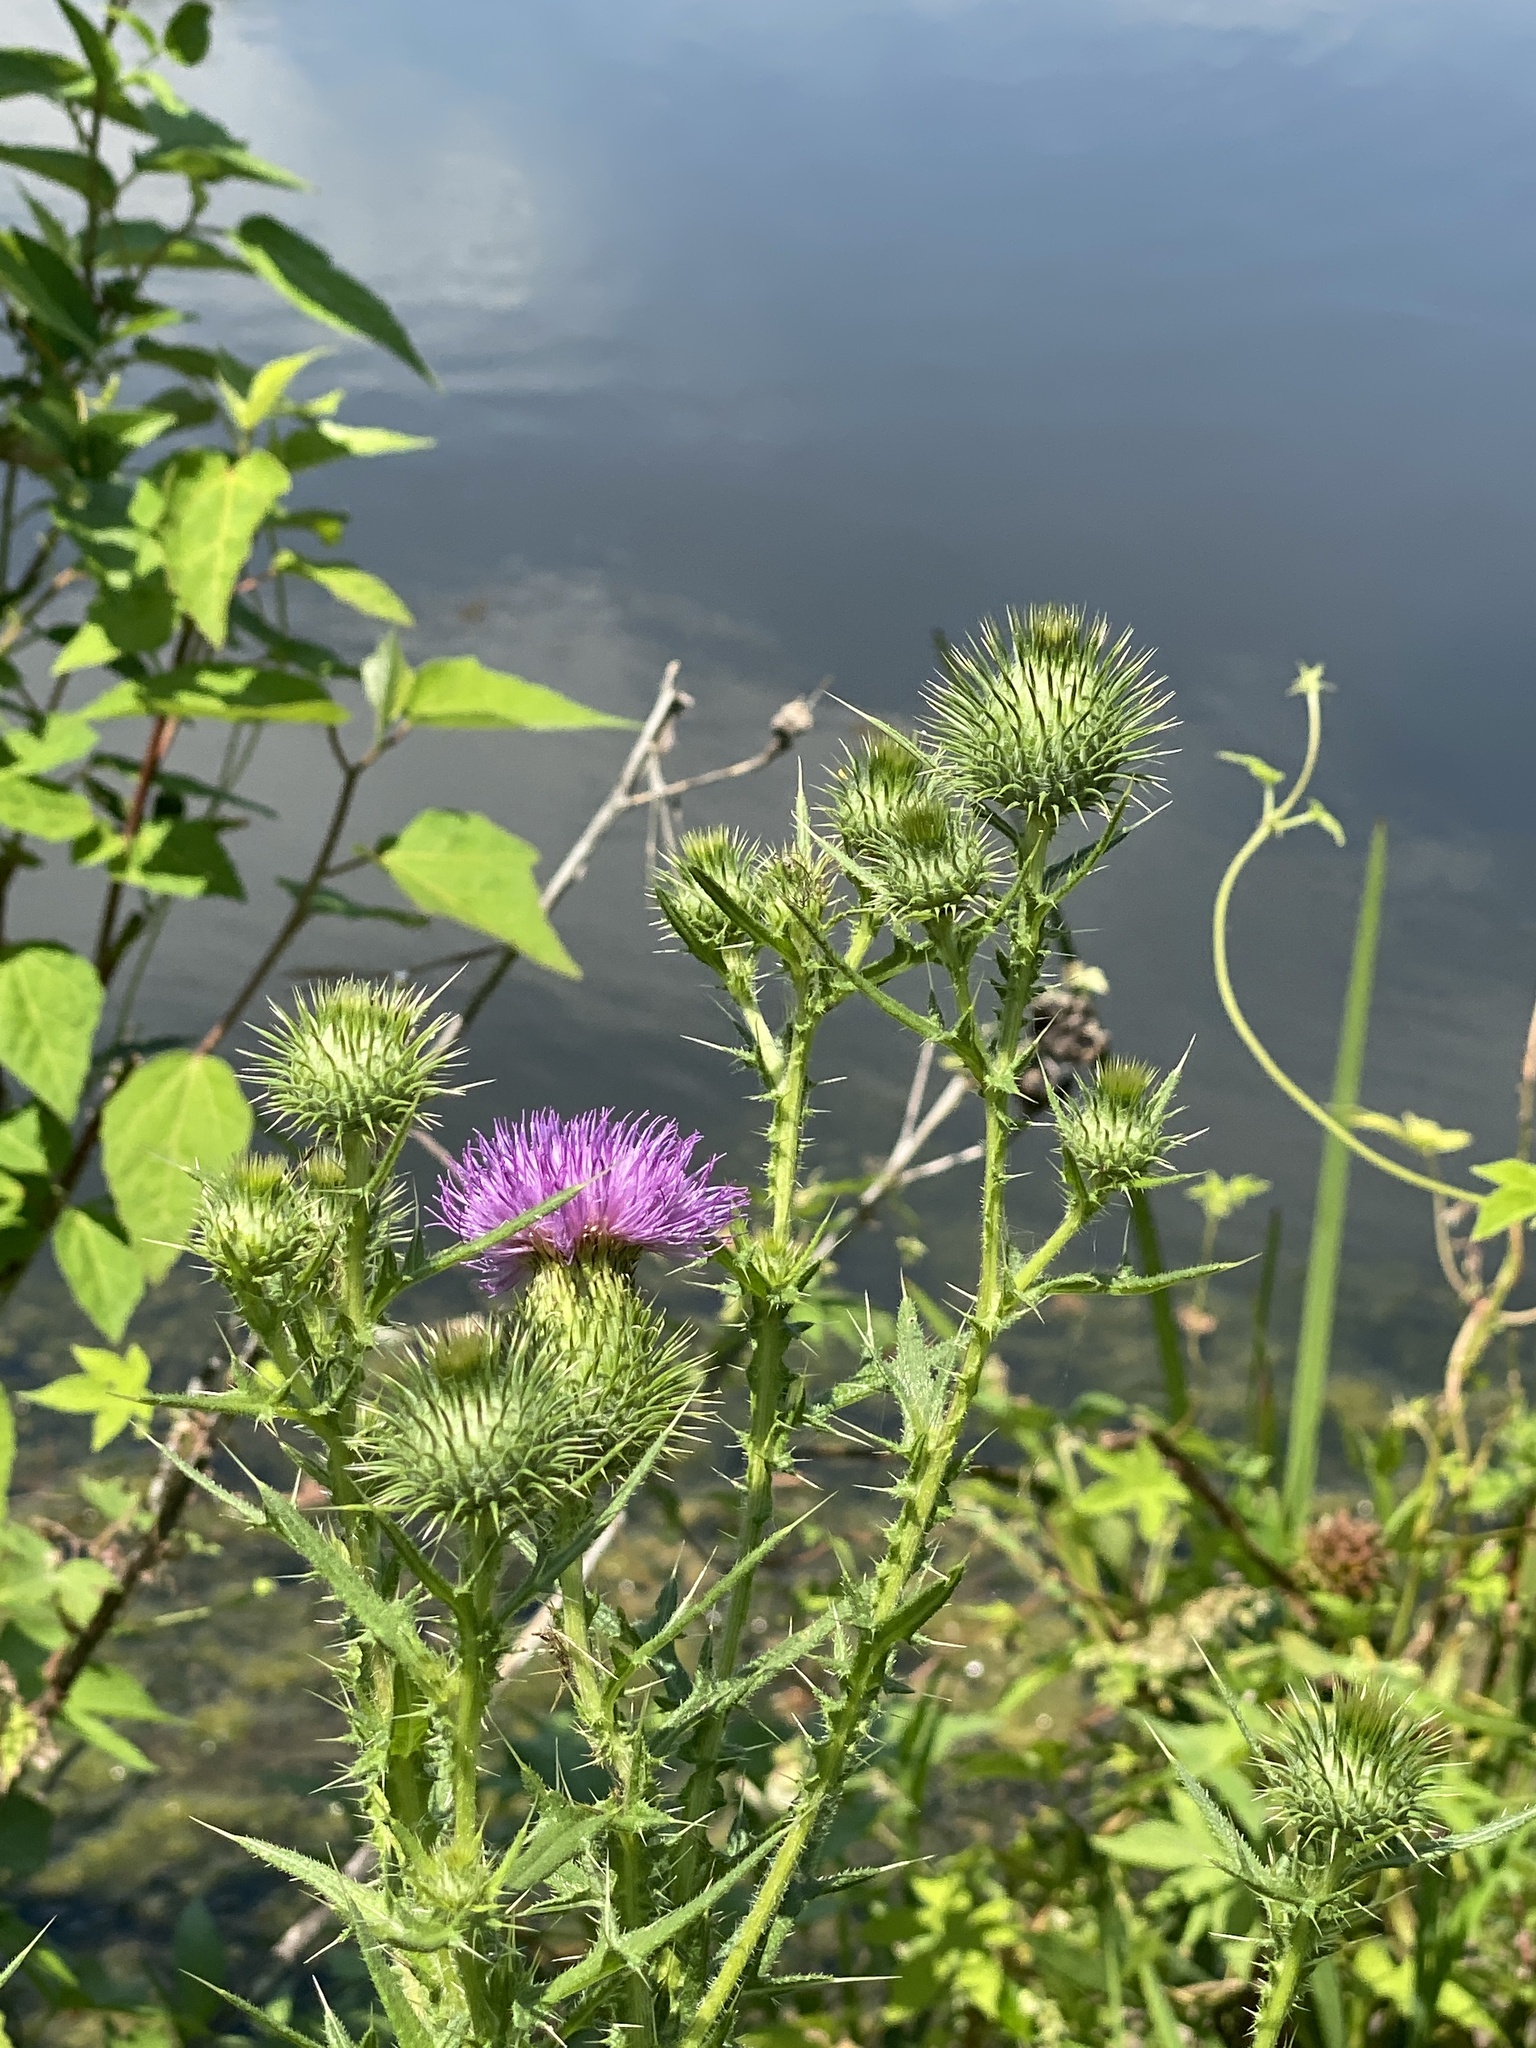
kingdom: Plantae
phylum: Tracheophyta
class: Magnoliopsida
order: Asterales
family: Asteraceae
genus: Cirsium
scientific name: Cirsium vulgare
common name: Bull thistle
